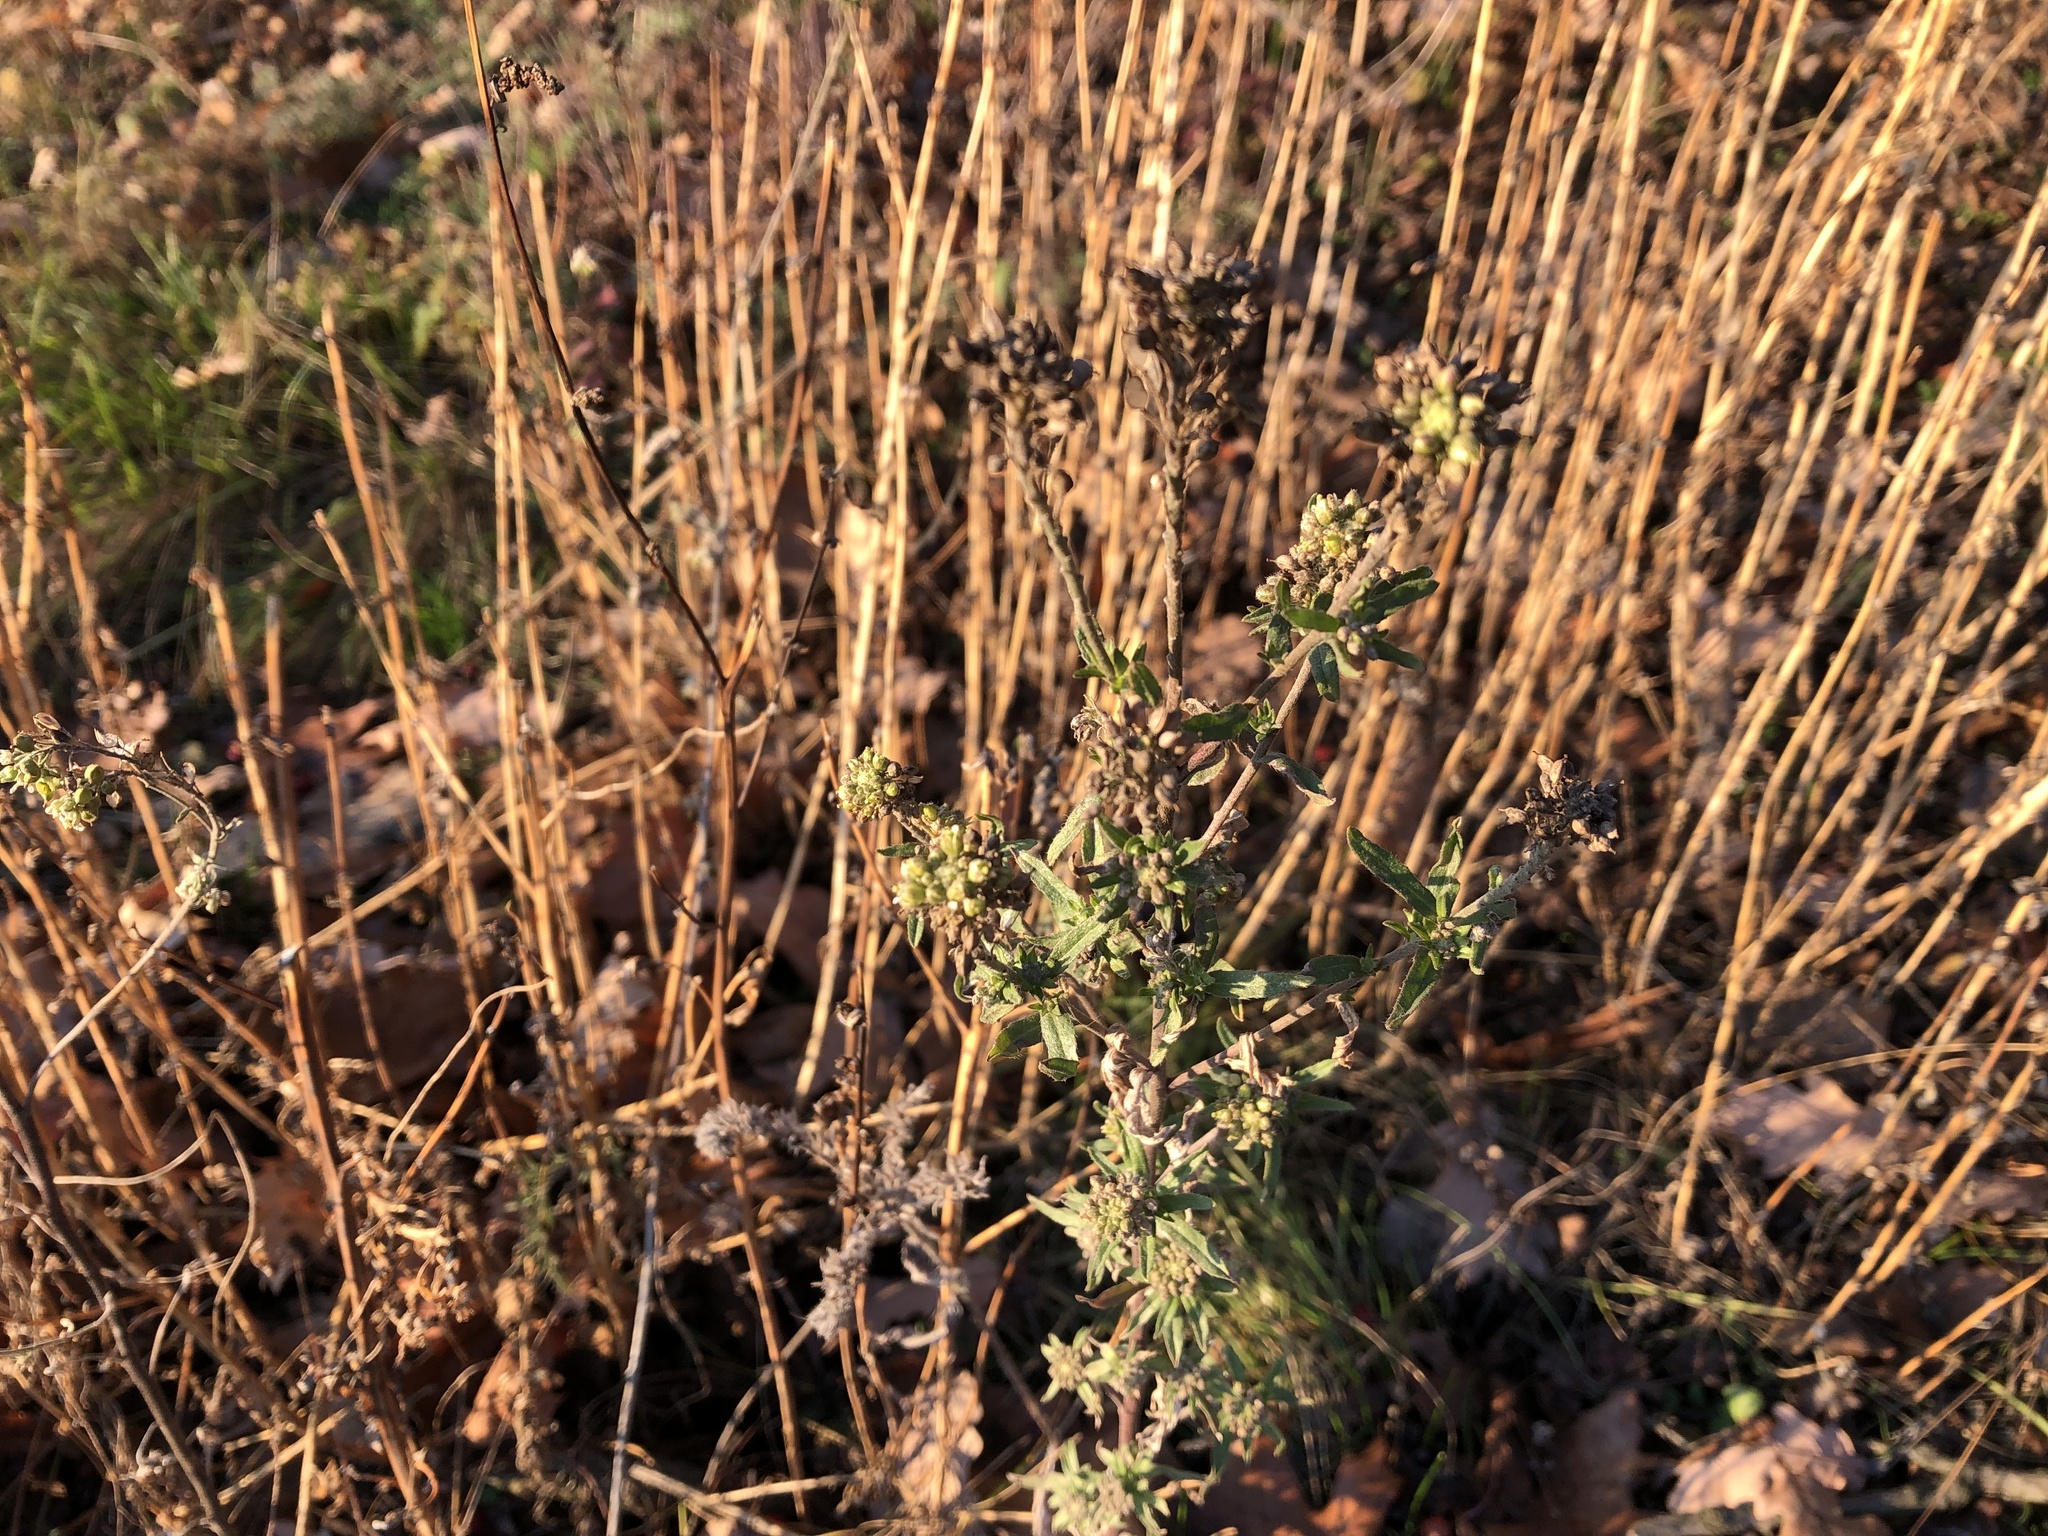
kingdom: Plantae
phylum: Tracheophyta
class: Magnoliopsida
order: Asterales
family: Asteraceae
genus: Artemisia
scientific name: Artemisia vulgaris
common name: Mugwort
